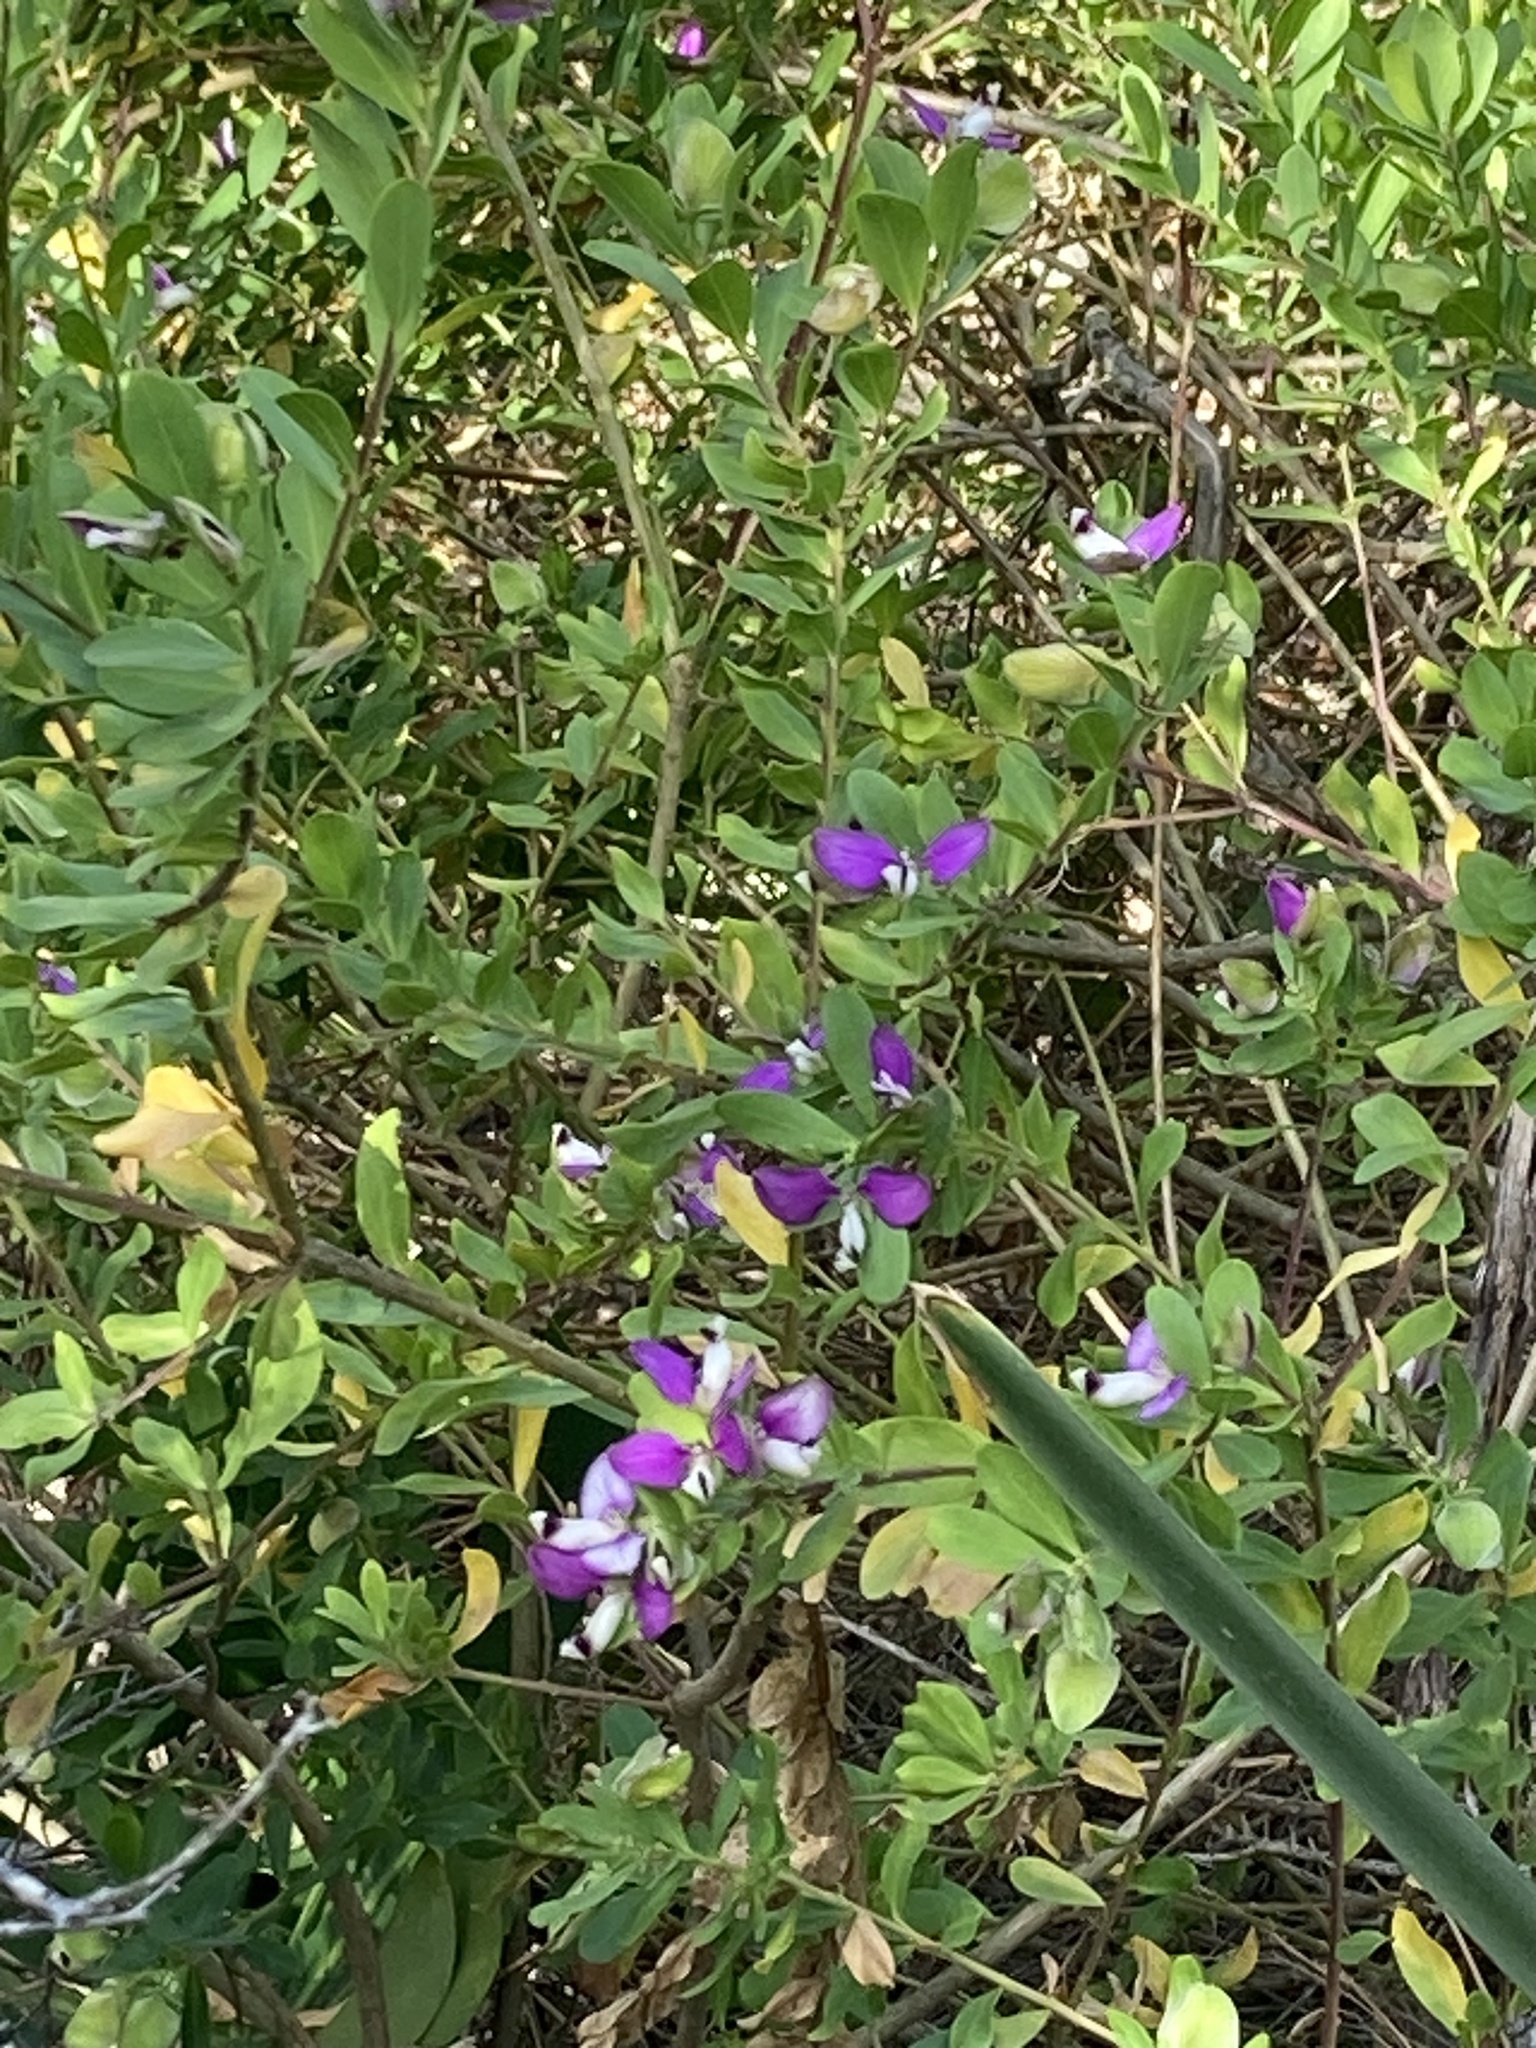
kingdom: Plantae
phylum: Tracheophyta
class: Magnoliopsida
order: Fabales
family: Polygalaceae
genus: Polygala
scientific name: Polygala myrtifolia
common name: Myrtle-leaf milkwort
